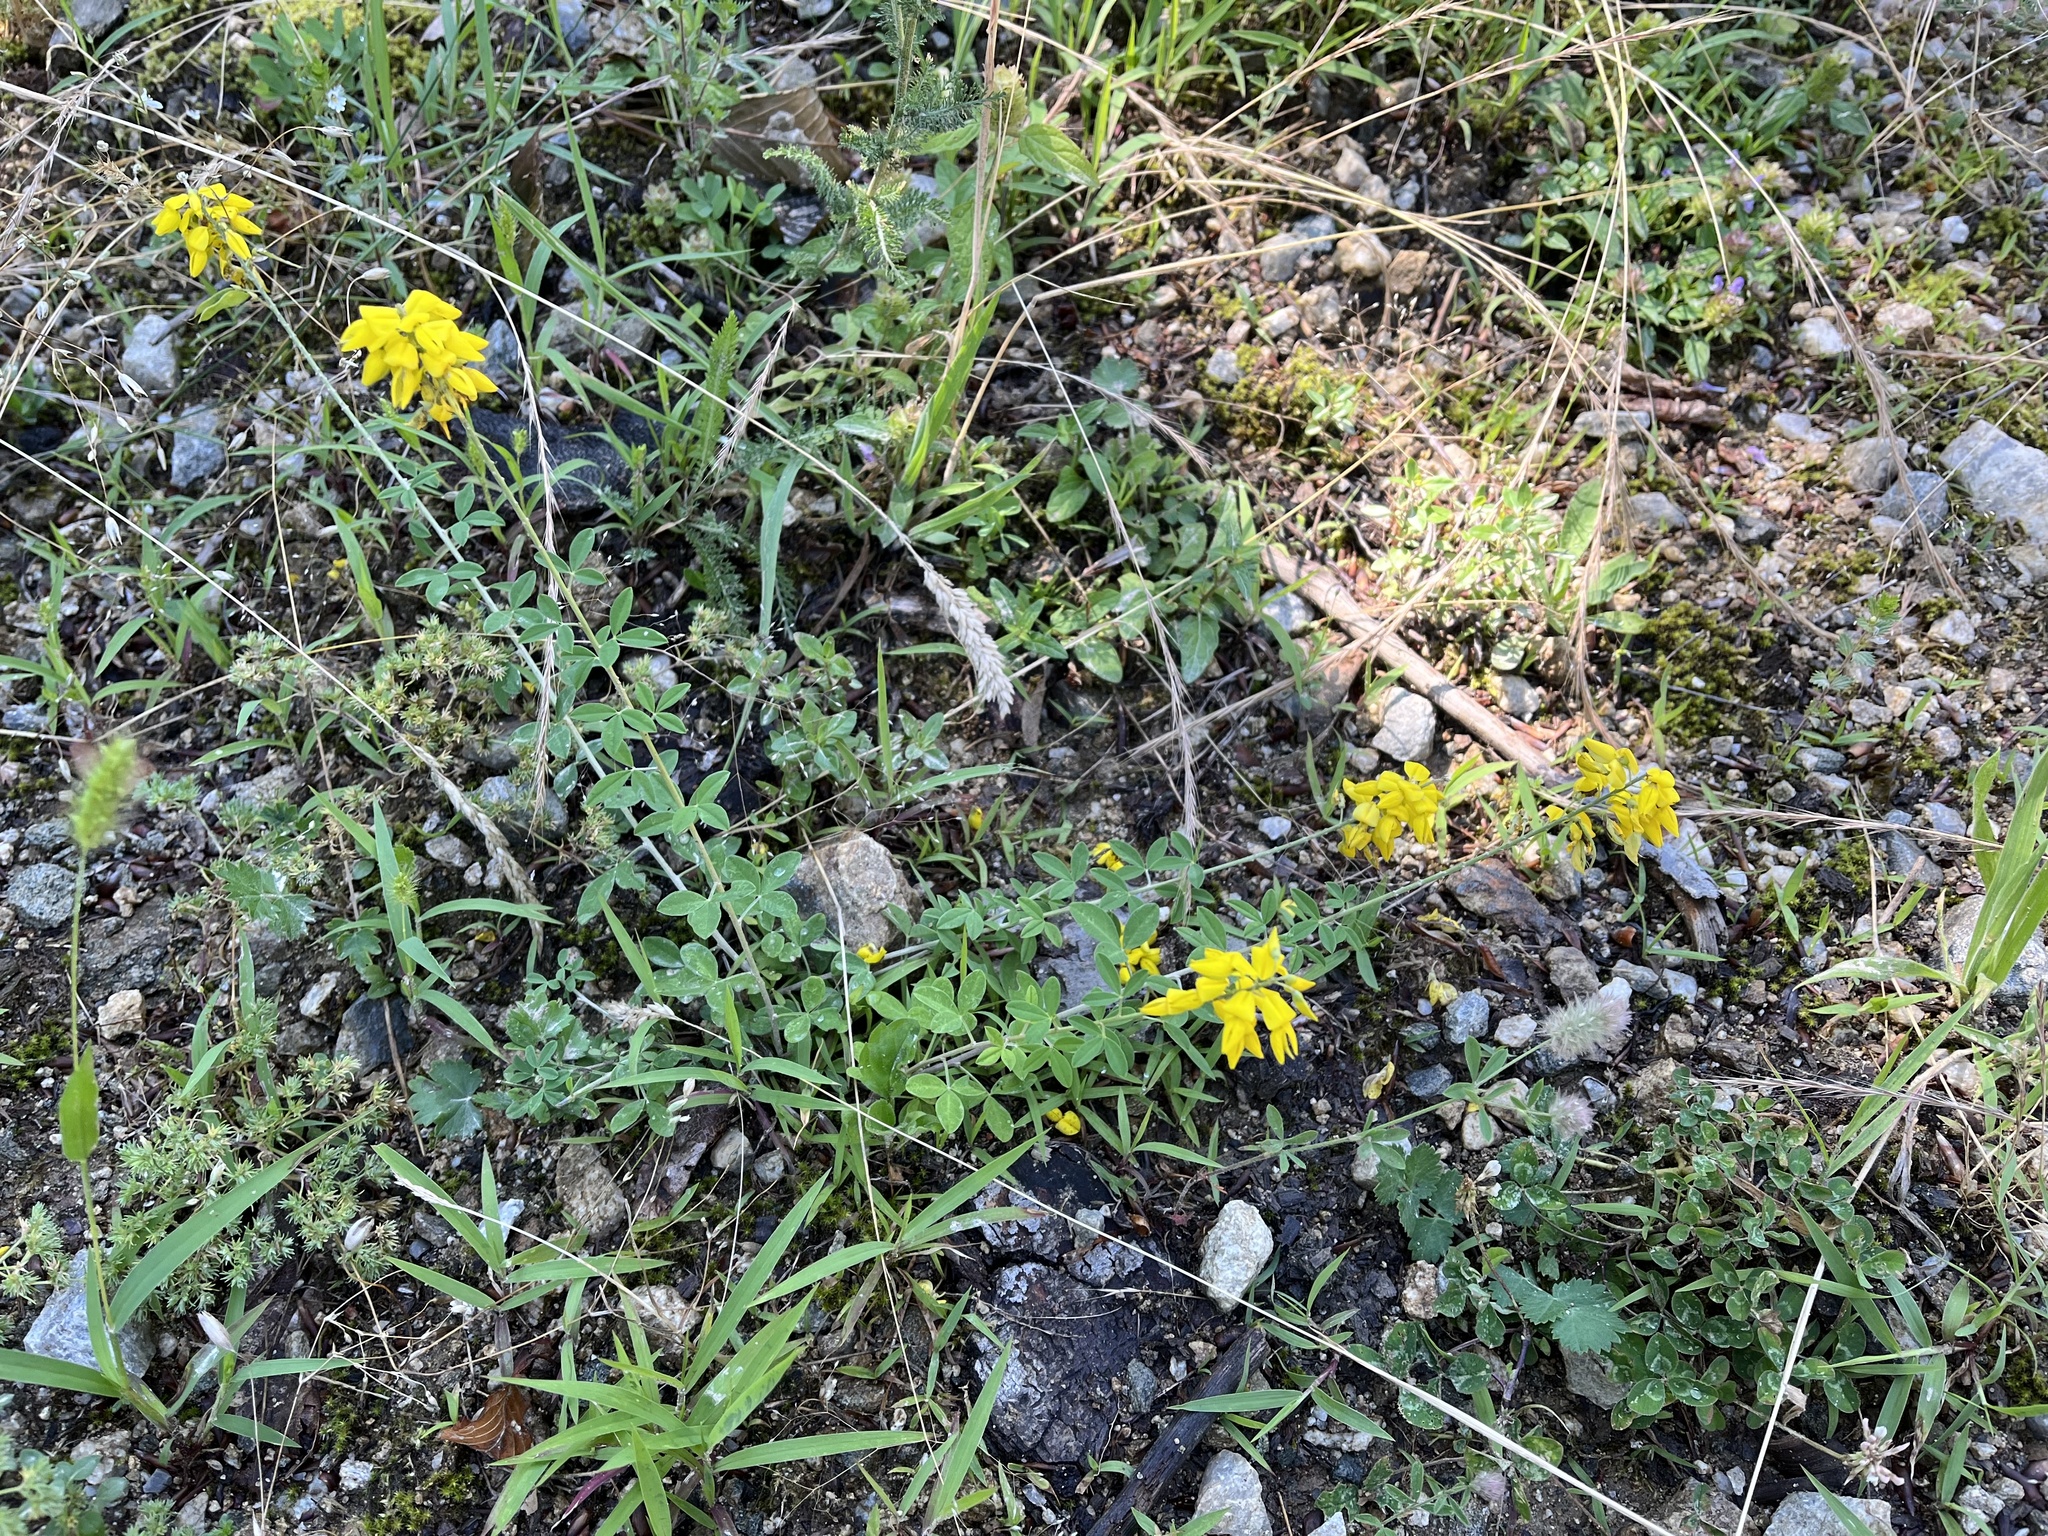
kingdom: Plantae
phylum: Tracheophyta
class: Magnoliopsida
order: Fabales
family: Fabaceae
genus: Cytisus
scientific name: Cytisus nigricans
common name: Black broom
